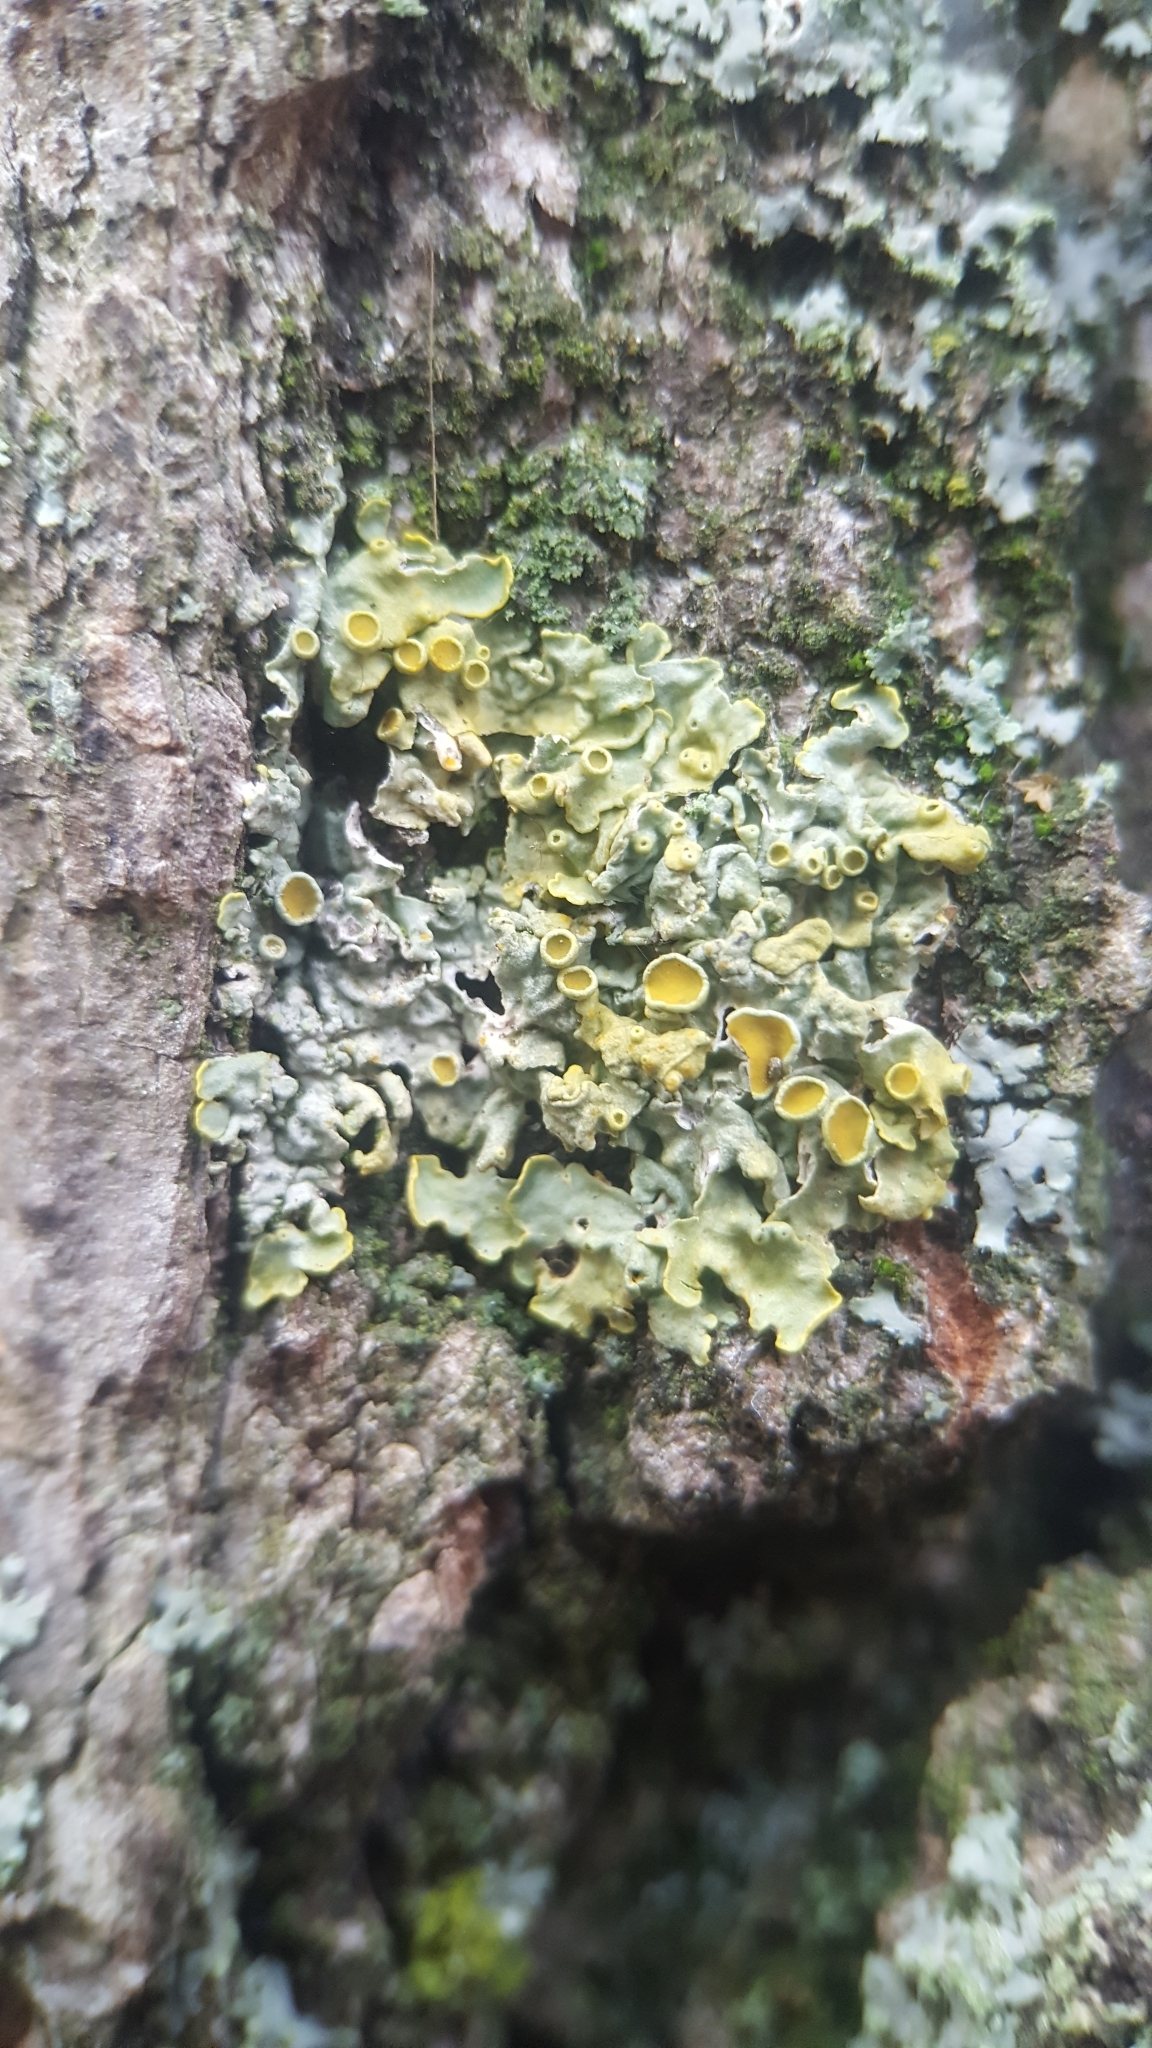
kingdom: Fungi
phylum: Ascomycota
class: Lecanoromycetes
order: Teloschistales
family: Teloschistaceae
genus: Xanthoria
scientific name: Xanthoria parietina
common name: Common orange lichen
